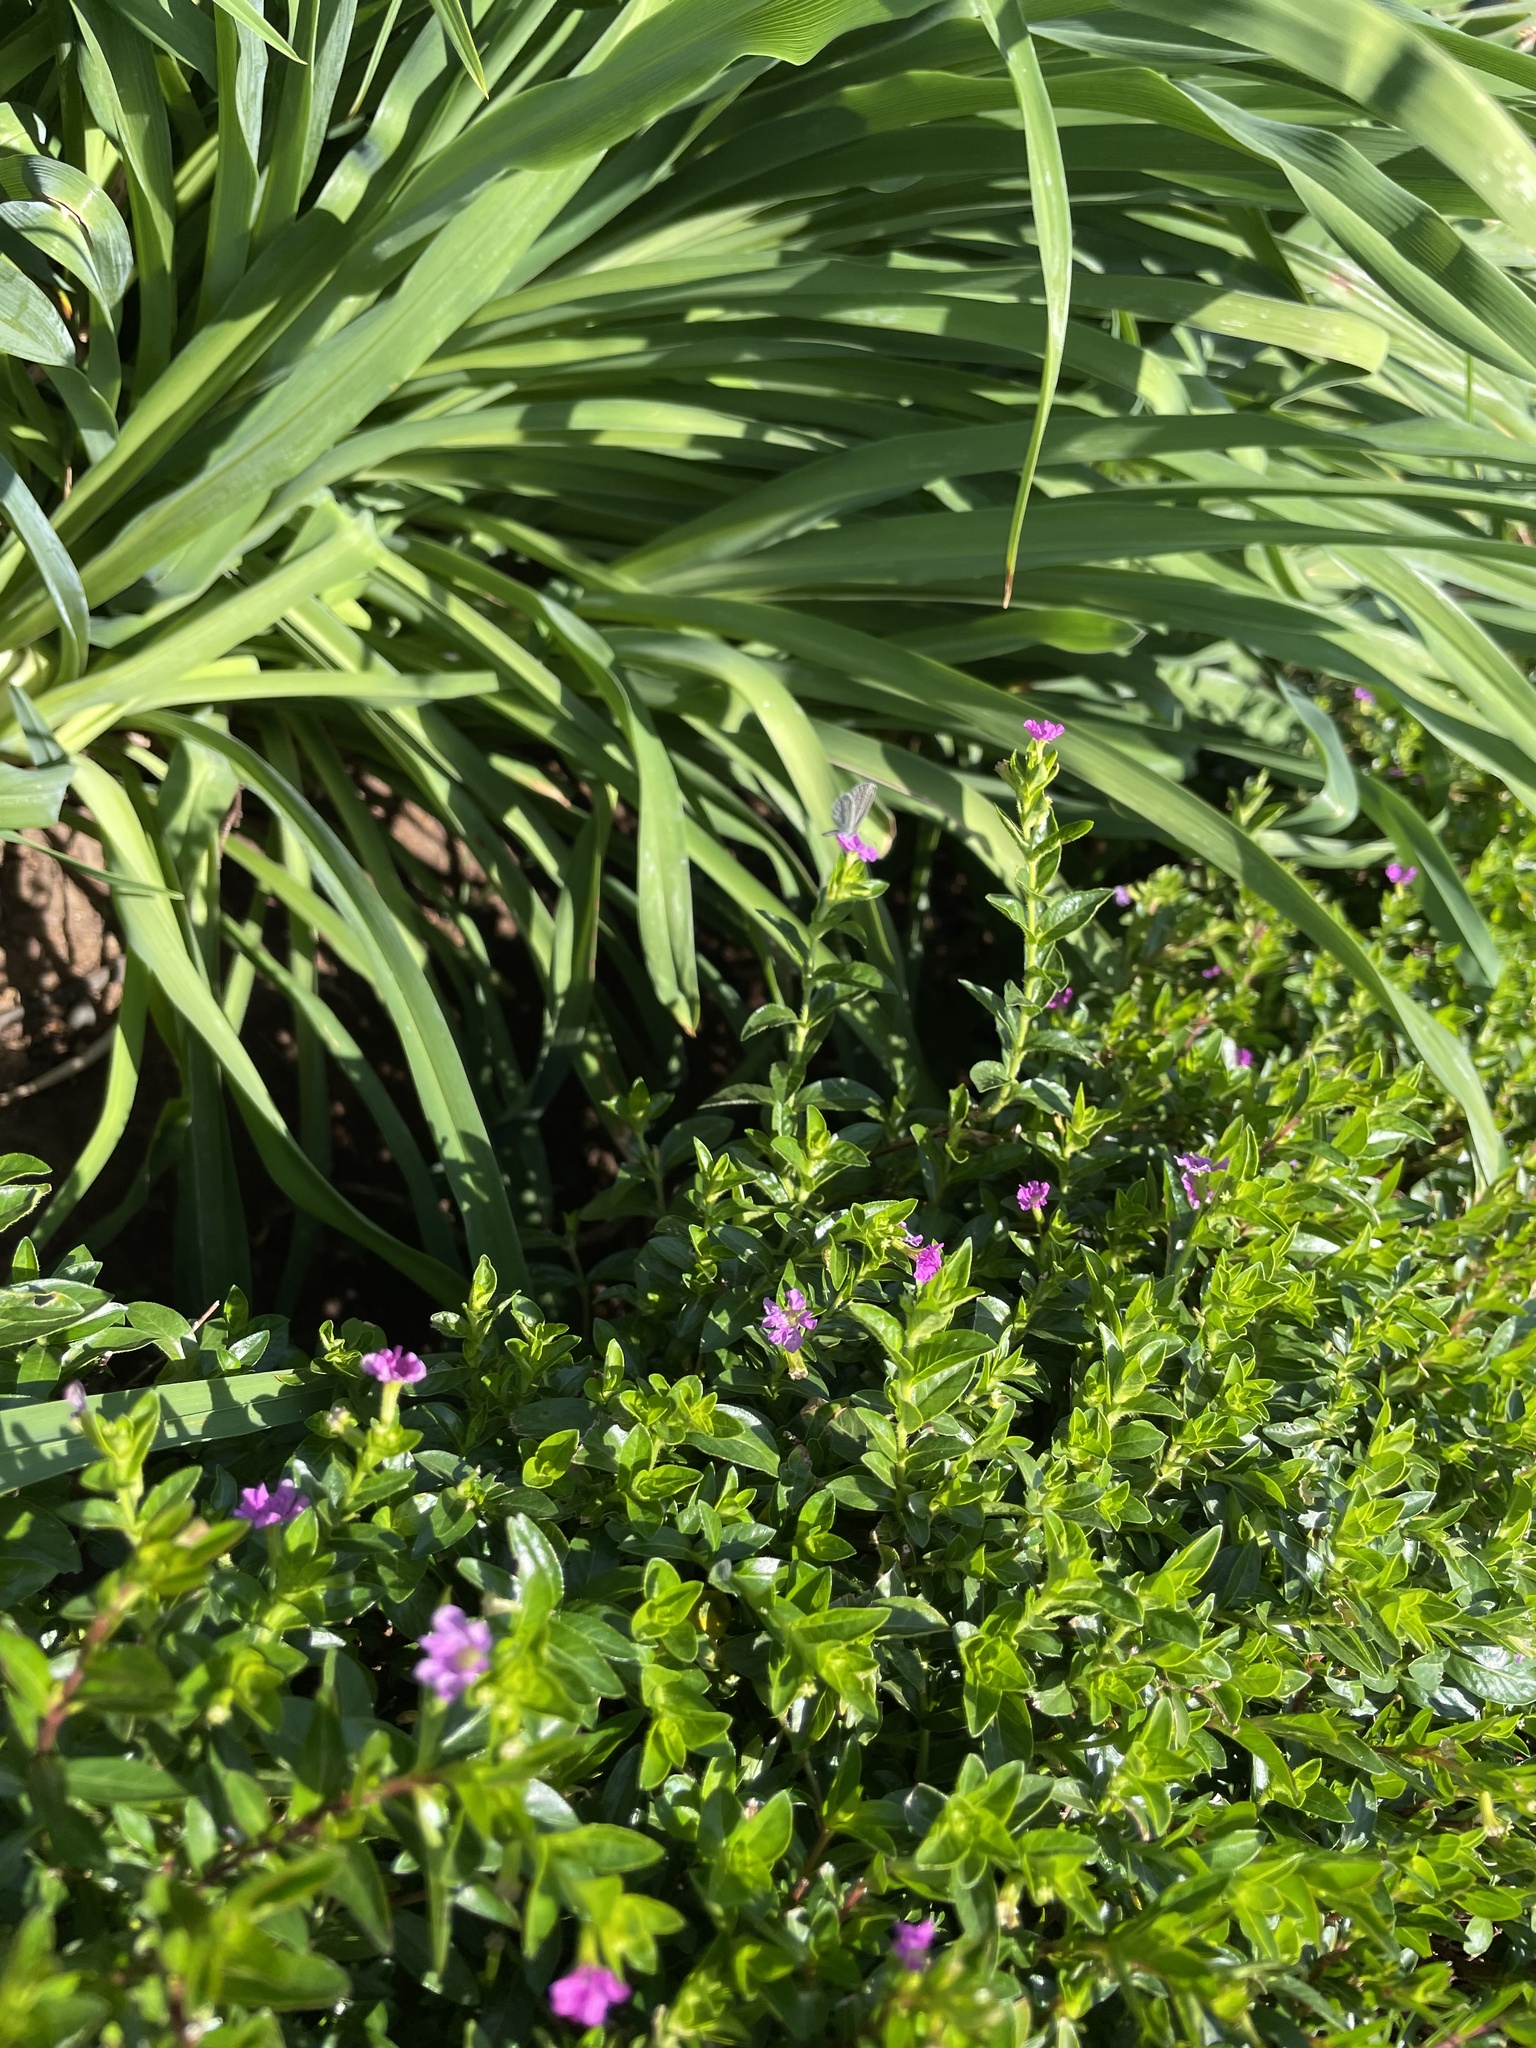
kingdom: Animalia
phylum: Arthropoda
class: Insecta
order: Lepidoptera
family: Lycaenidae
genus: Zizula
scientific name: Zizula hylax
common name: Gaika blue
